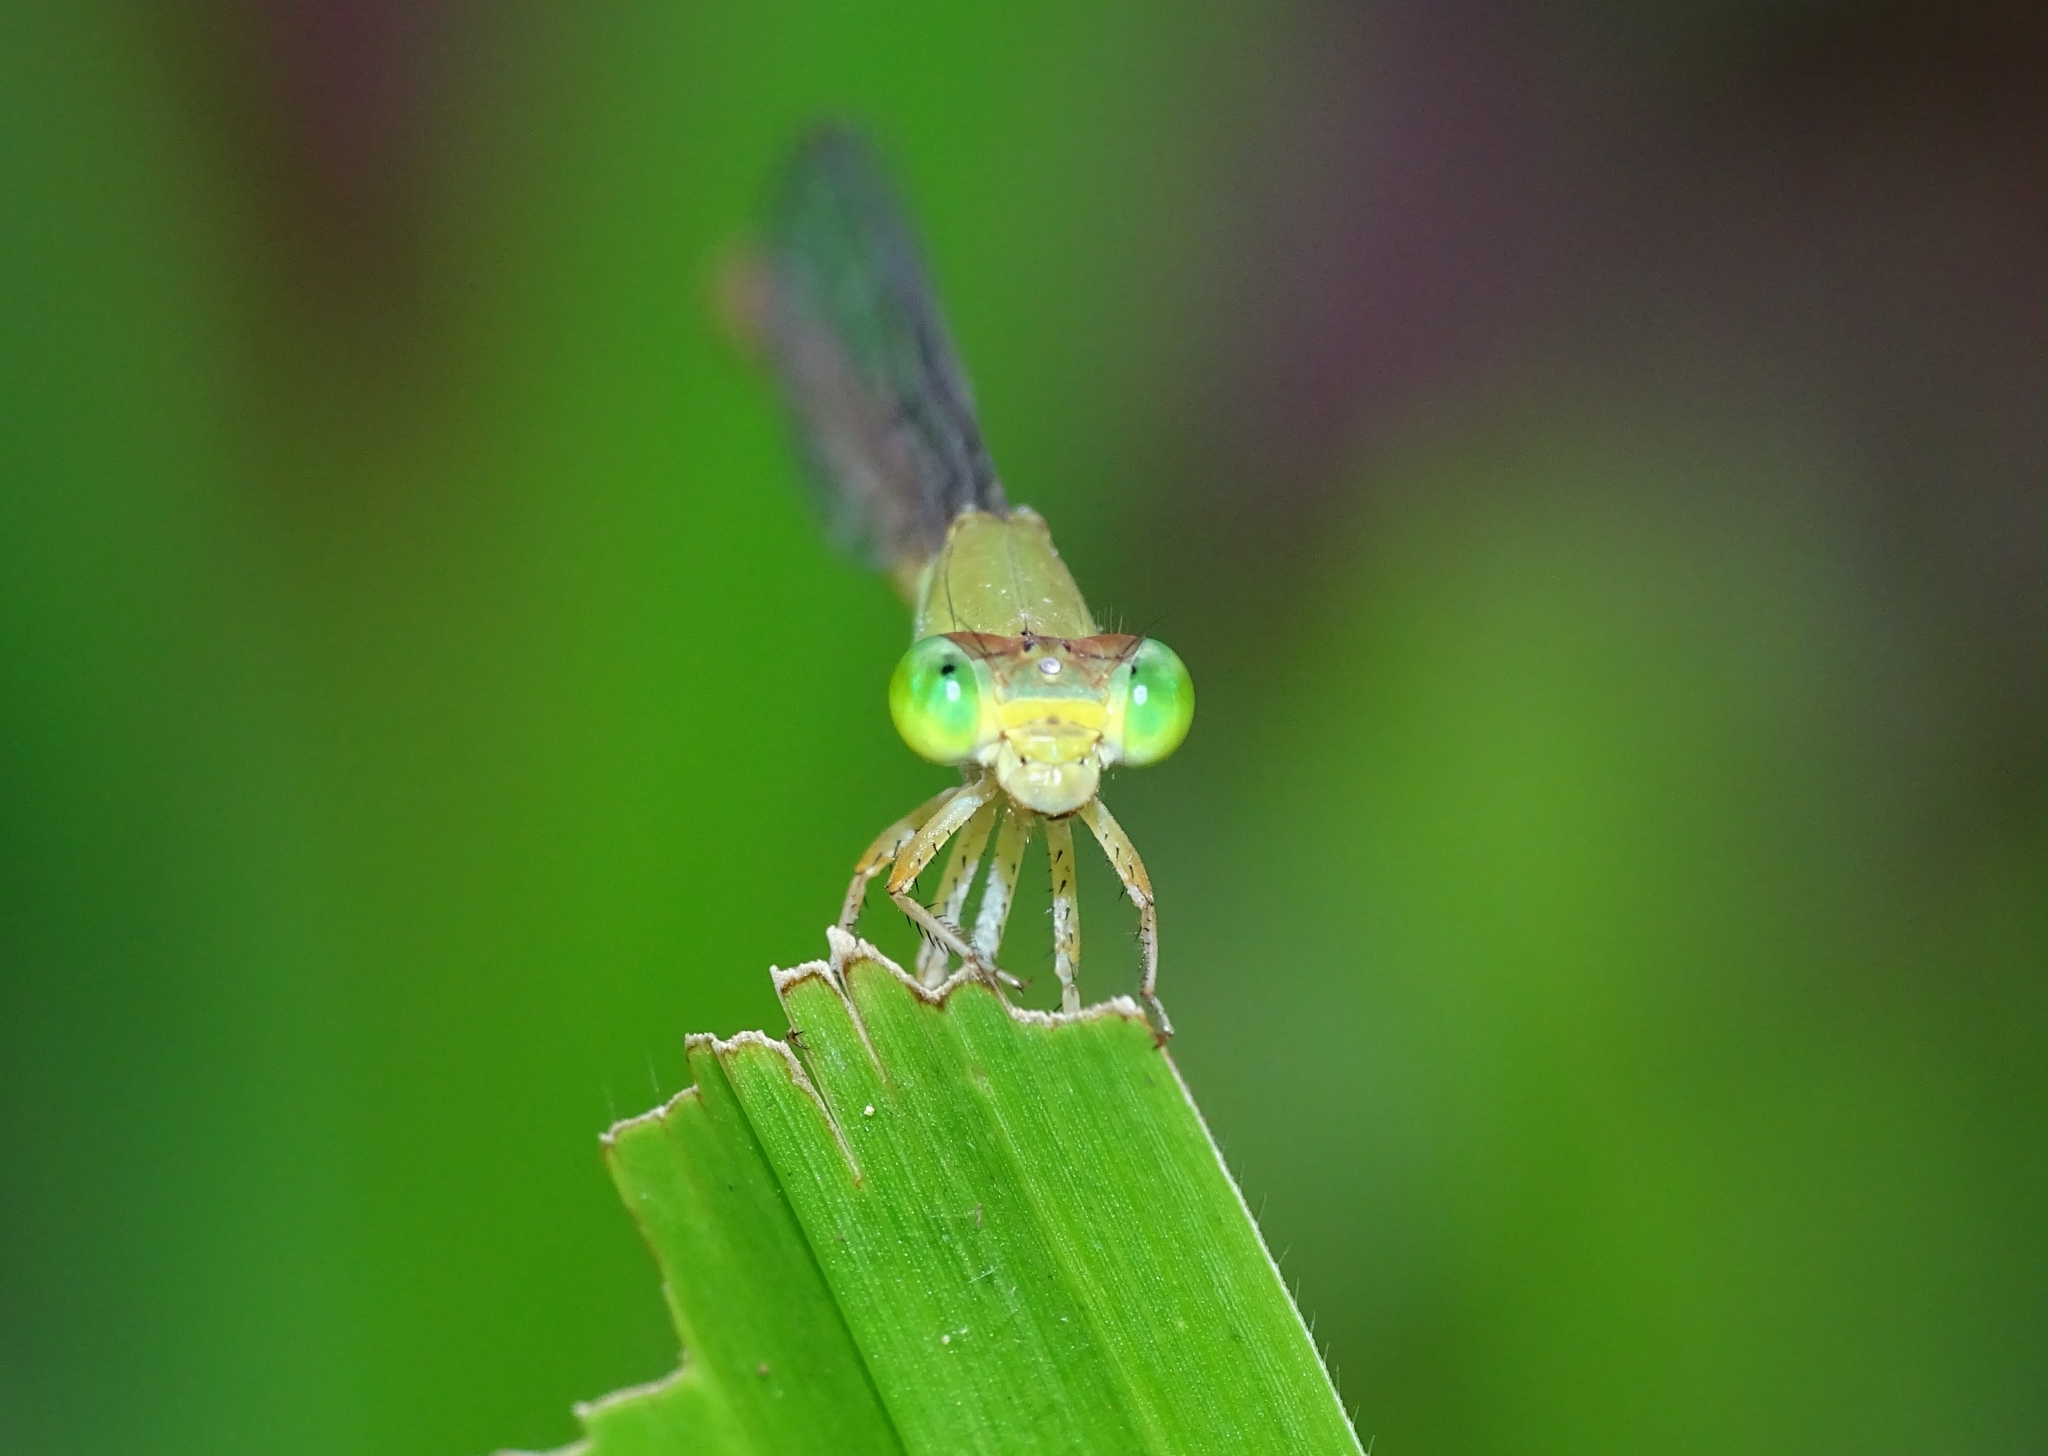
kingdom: Animalia
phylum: Arthropoda
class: Insecta
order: Odonata
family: Coenagrionidae
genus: Ceriagrion
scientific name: Ceriagrion coromandelianum
